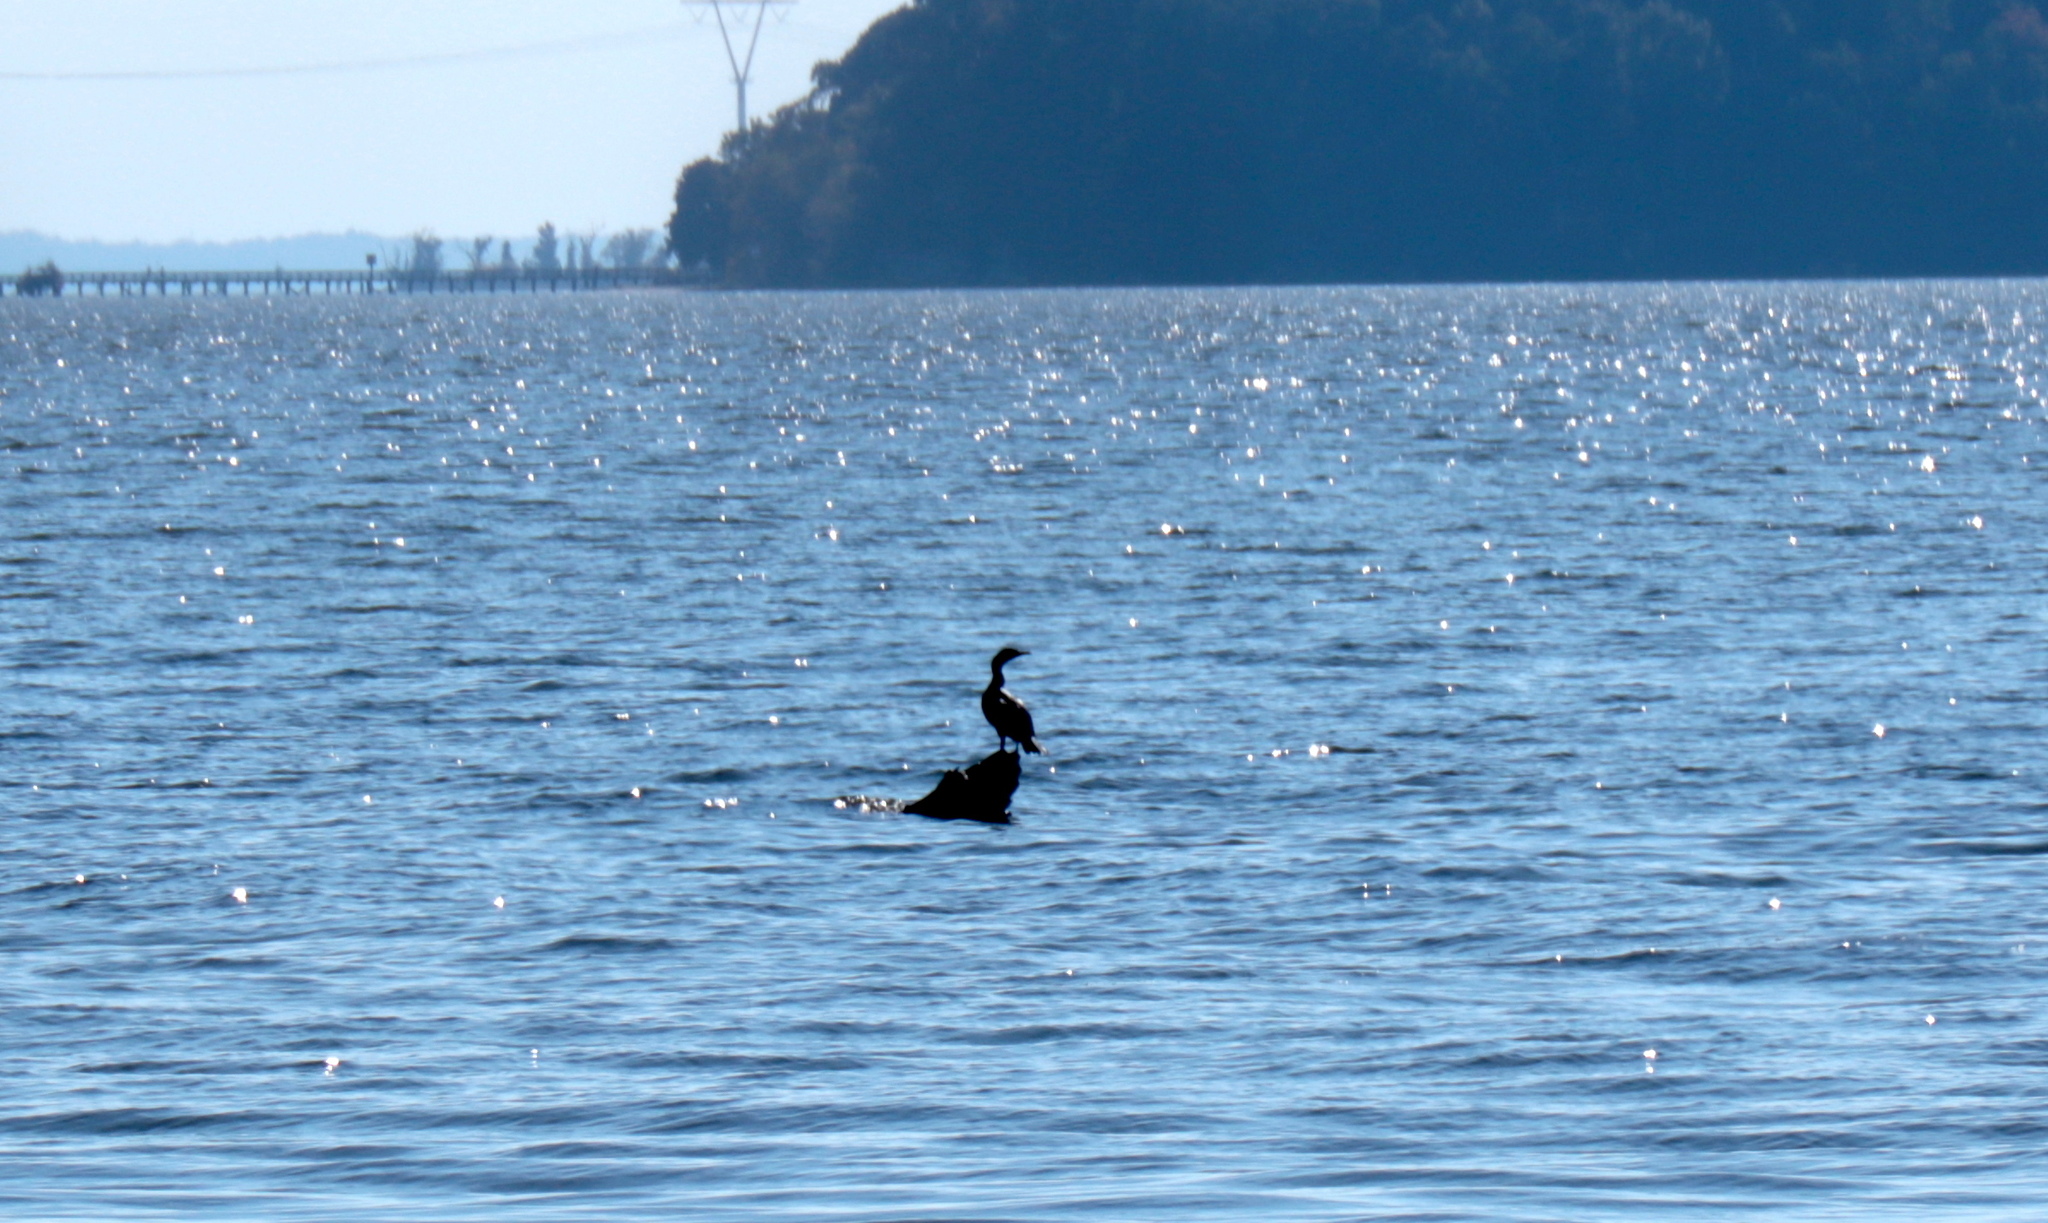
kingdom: Animalia
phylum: Chordata
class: Aves
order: Suliformes
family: Phalacrocoracidae
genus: Phalacrocorax
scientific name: Phalacrocorax auritus
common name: Double-crested cormorant
